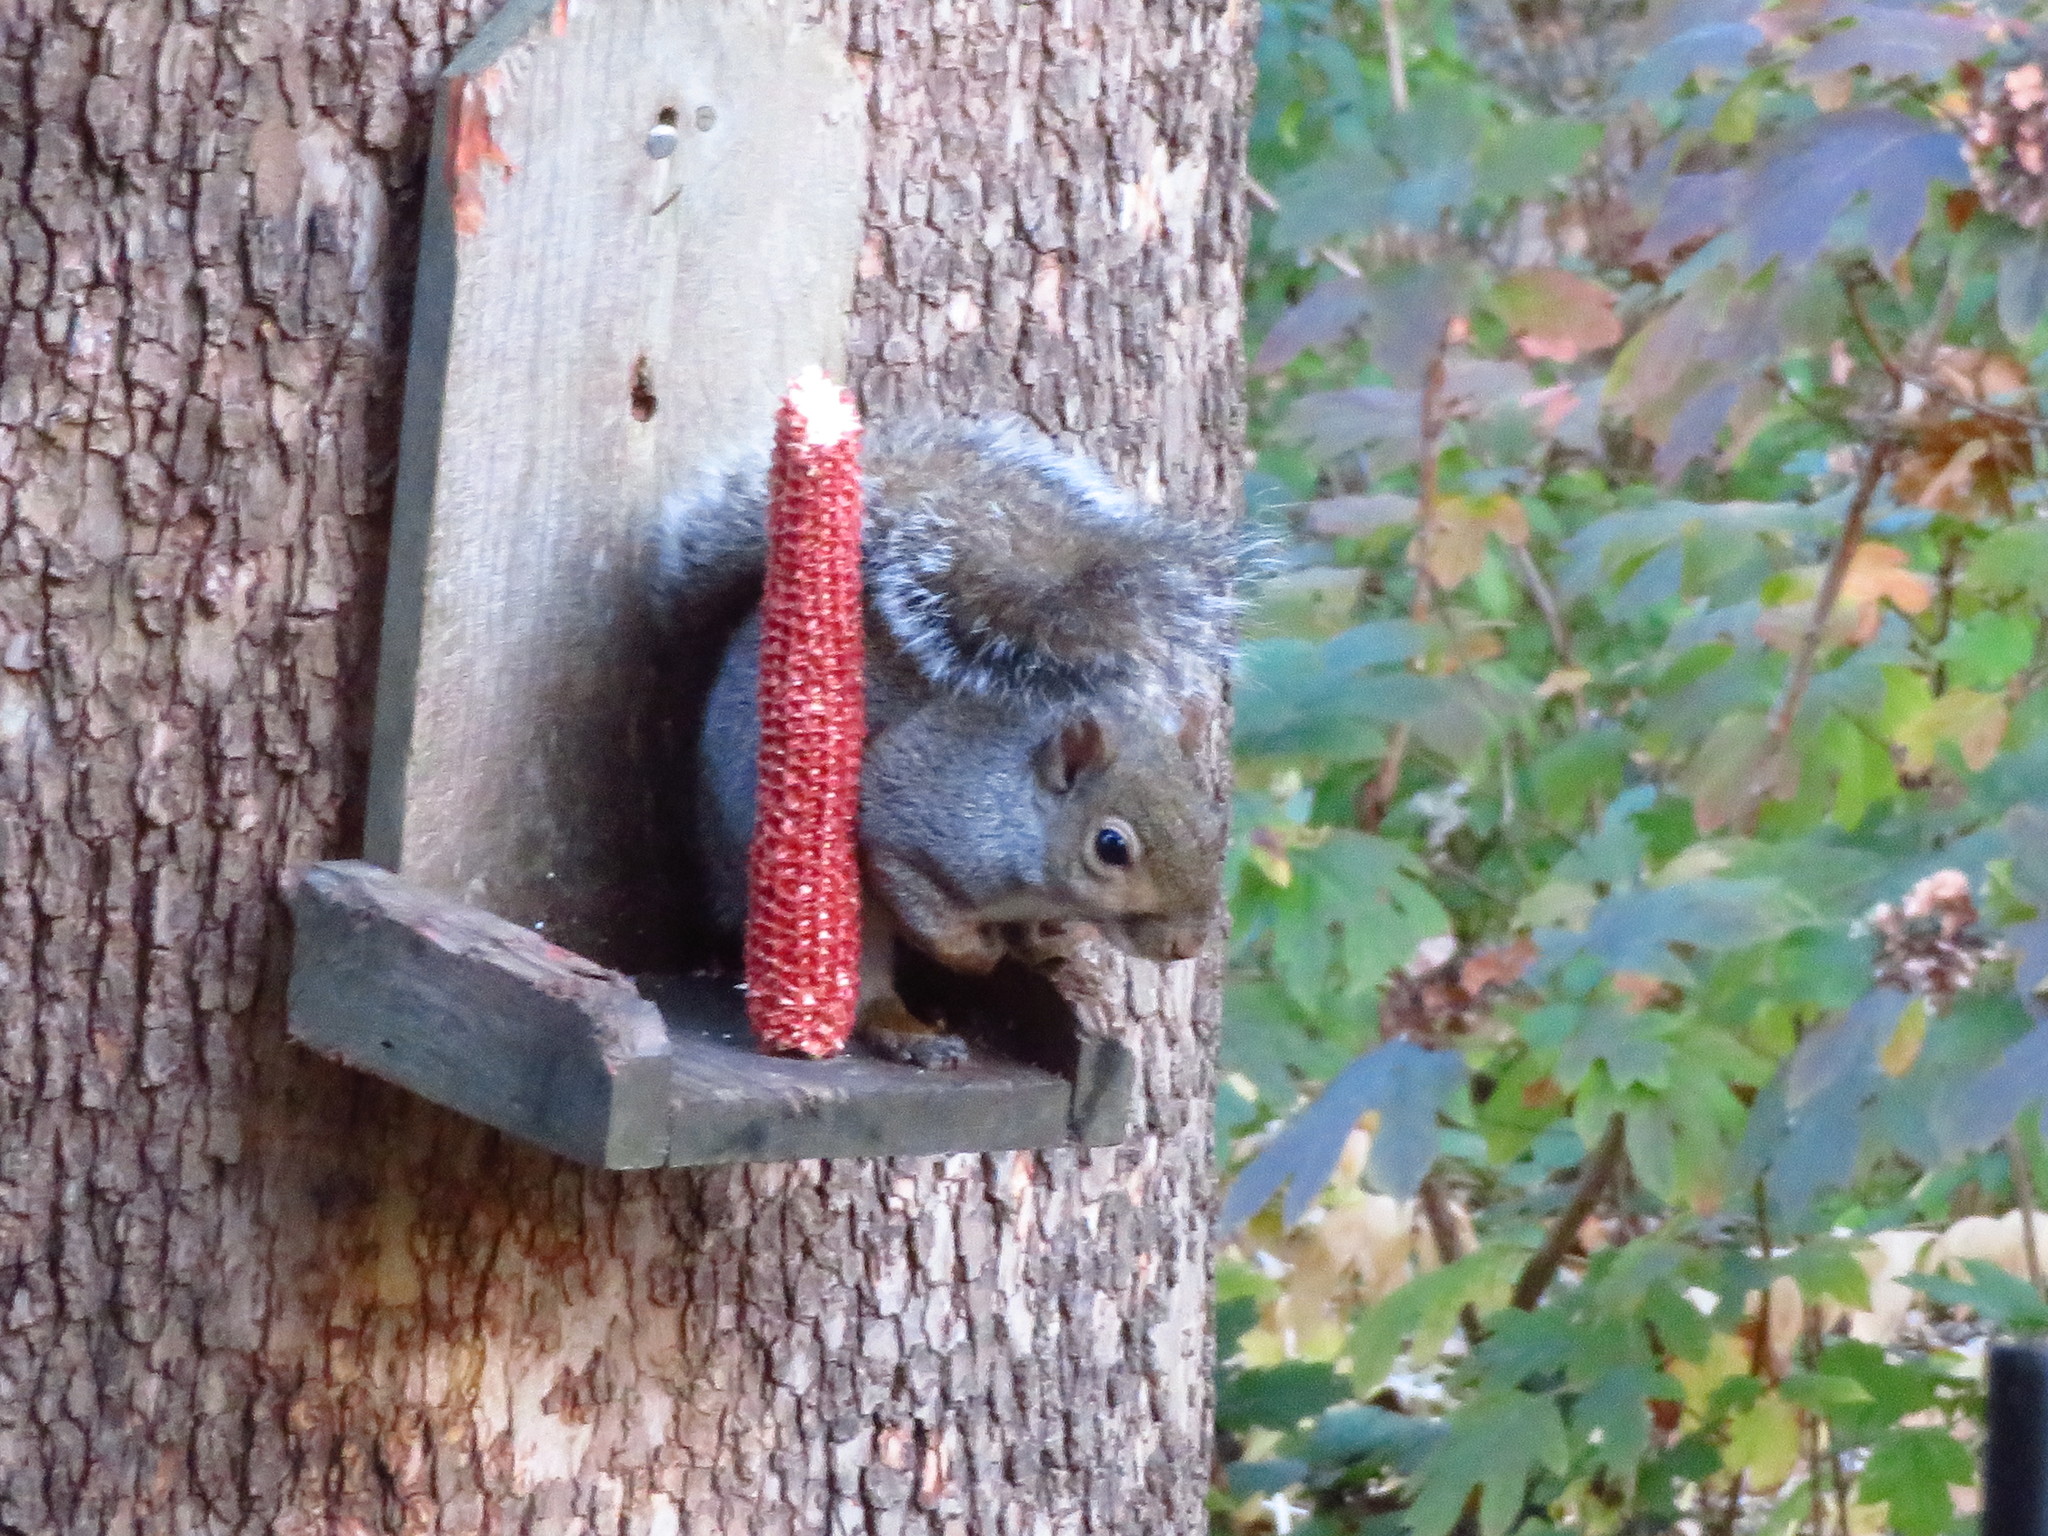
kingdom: Animalia
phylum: Chordata
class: Mammalia
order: Rodentia
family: Sciuridae
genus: Sciurus
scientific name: Sciurus carolinensis
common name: Eastern gray squirrel
